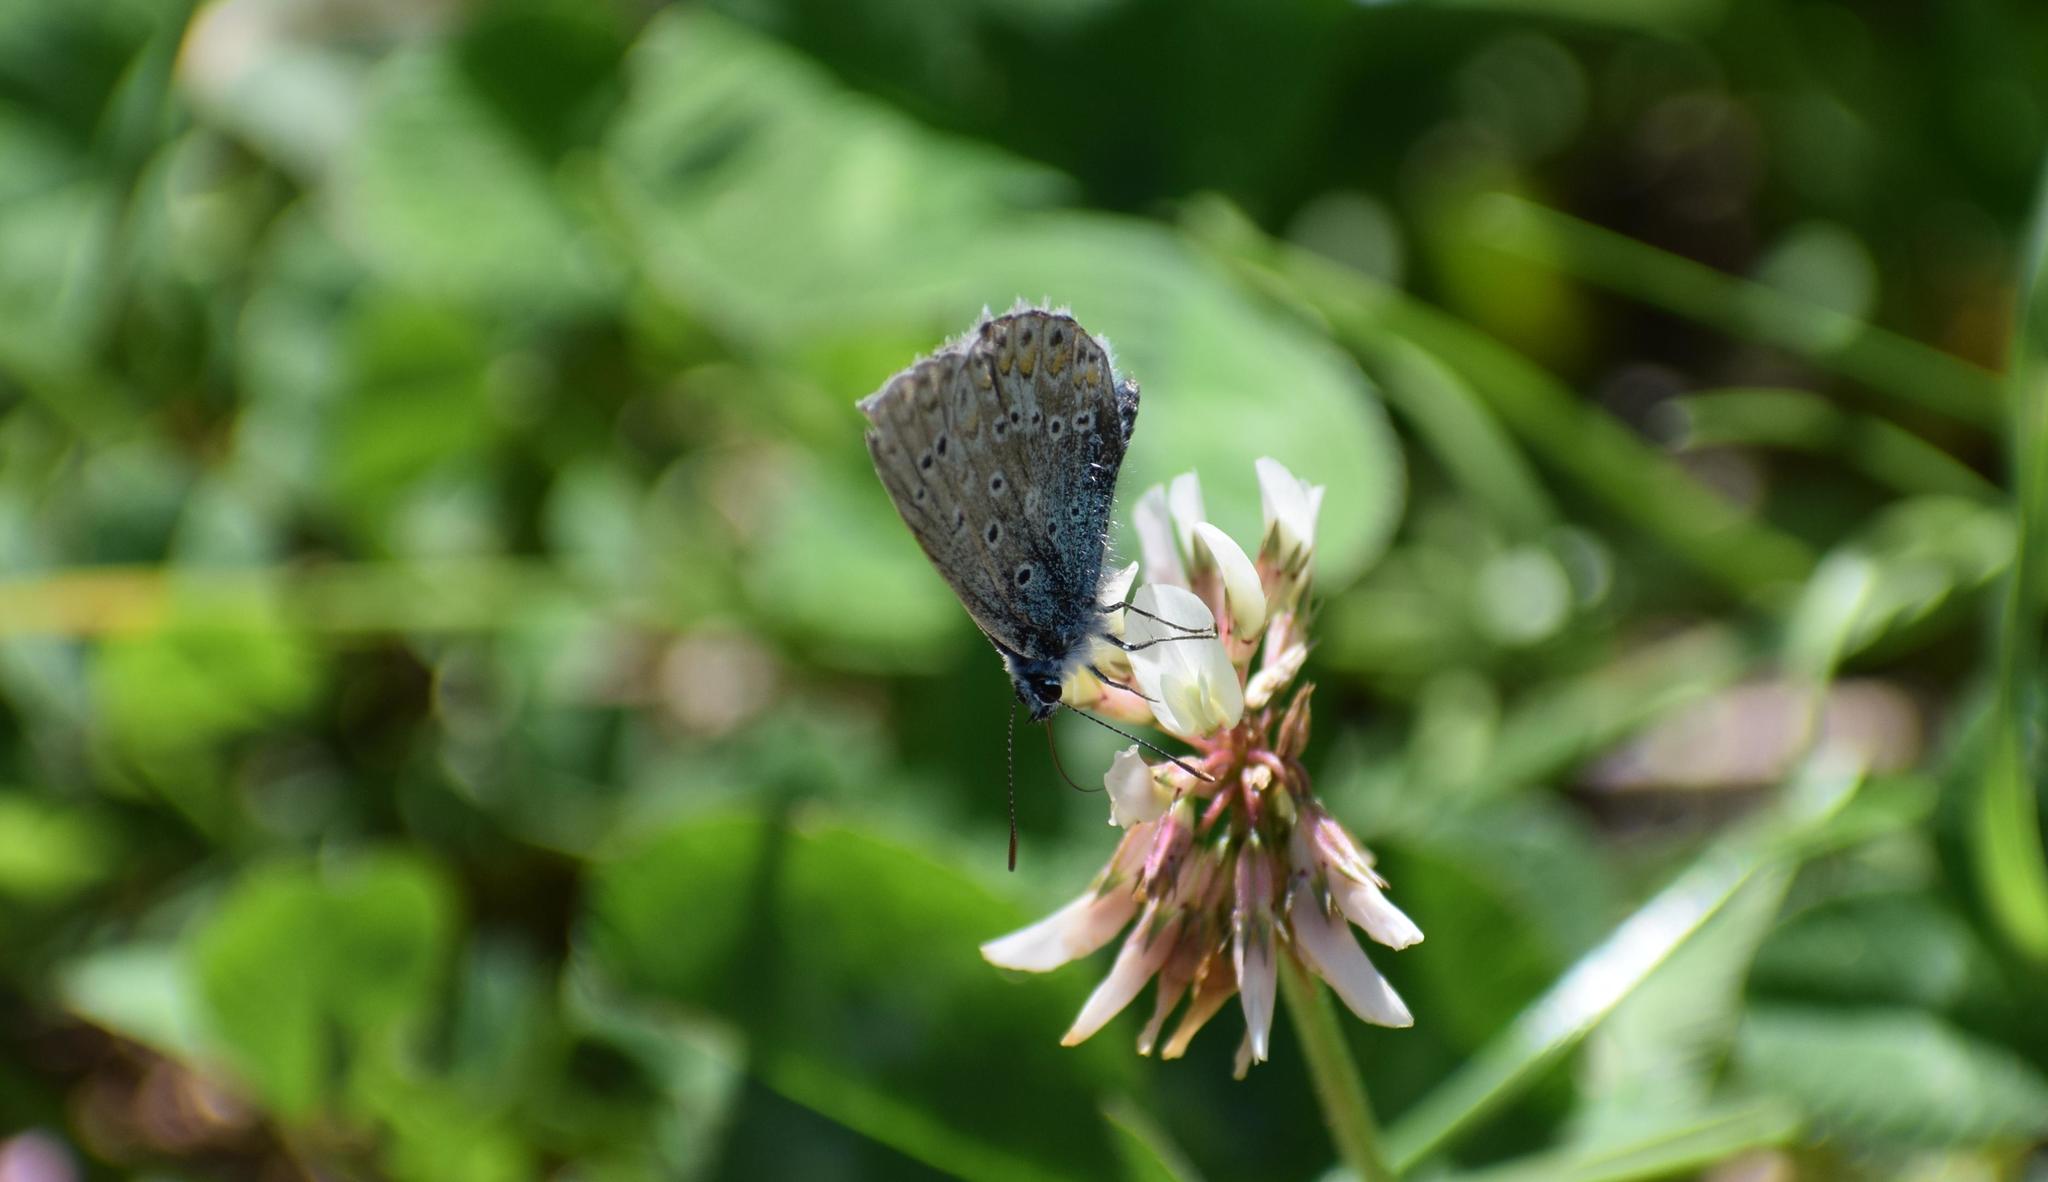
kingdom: Animalia
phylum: Arthropoda
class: Insecta
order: Lepidoptera
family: Lycaenidae
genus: Polyommatus
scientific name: Polyommatus icarus
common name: Common blue
